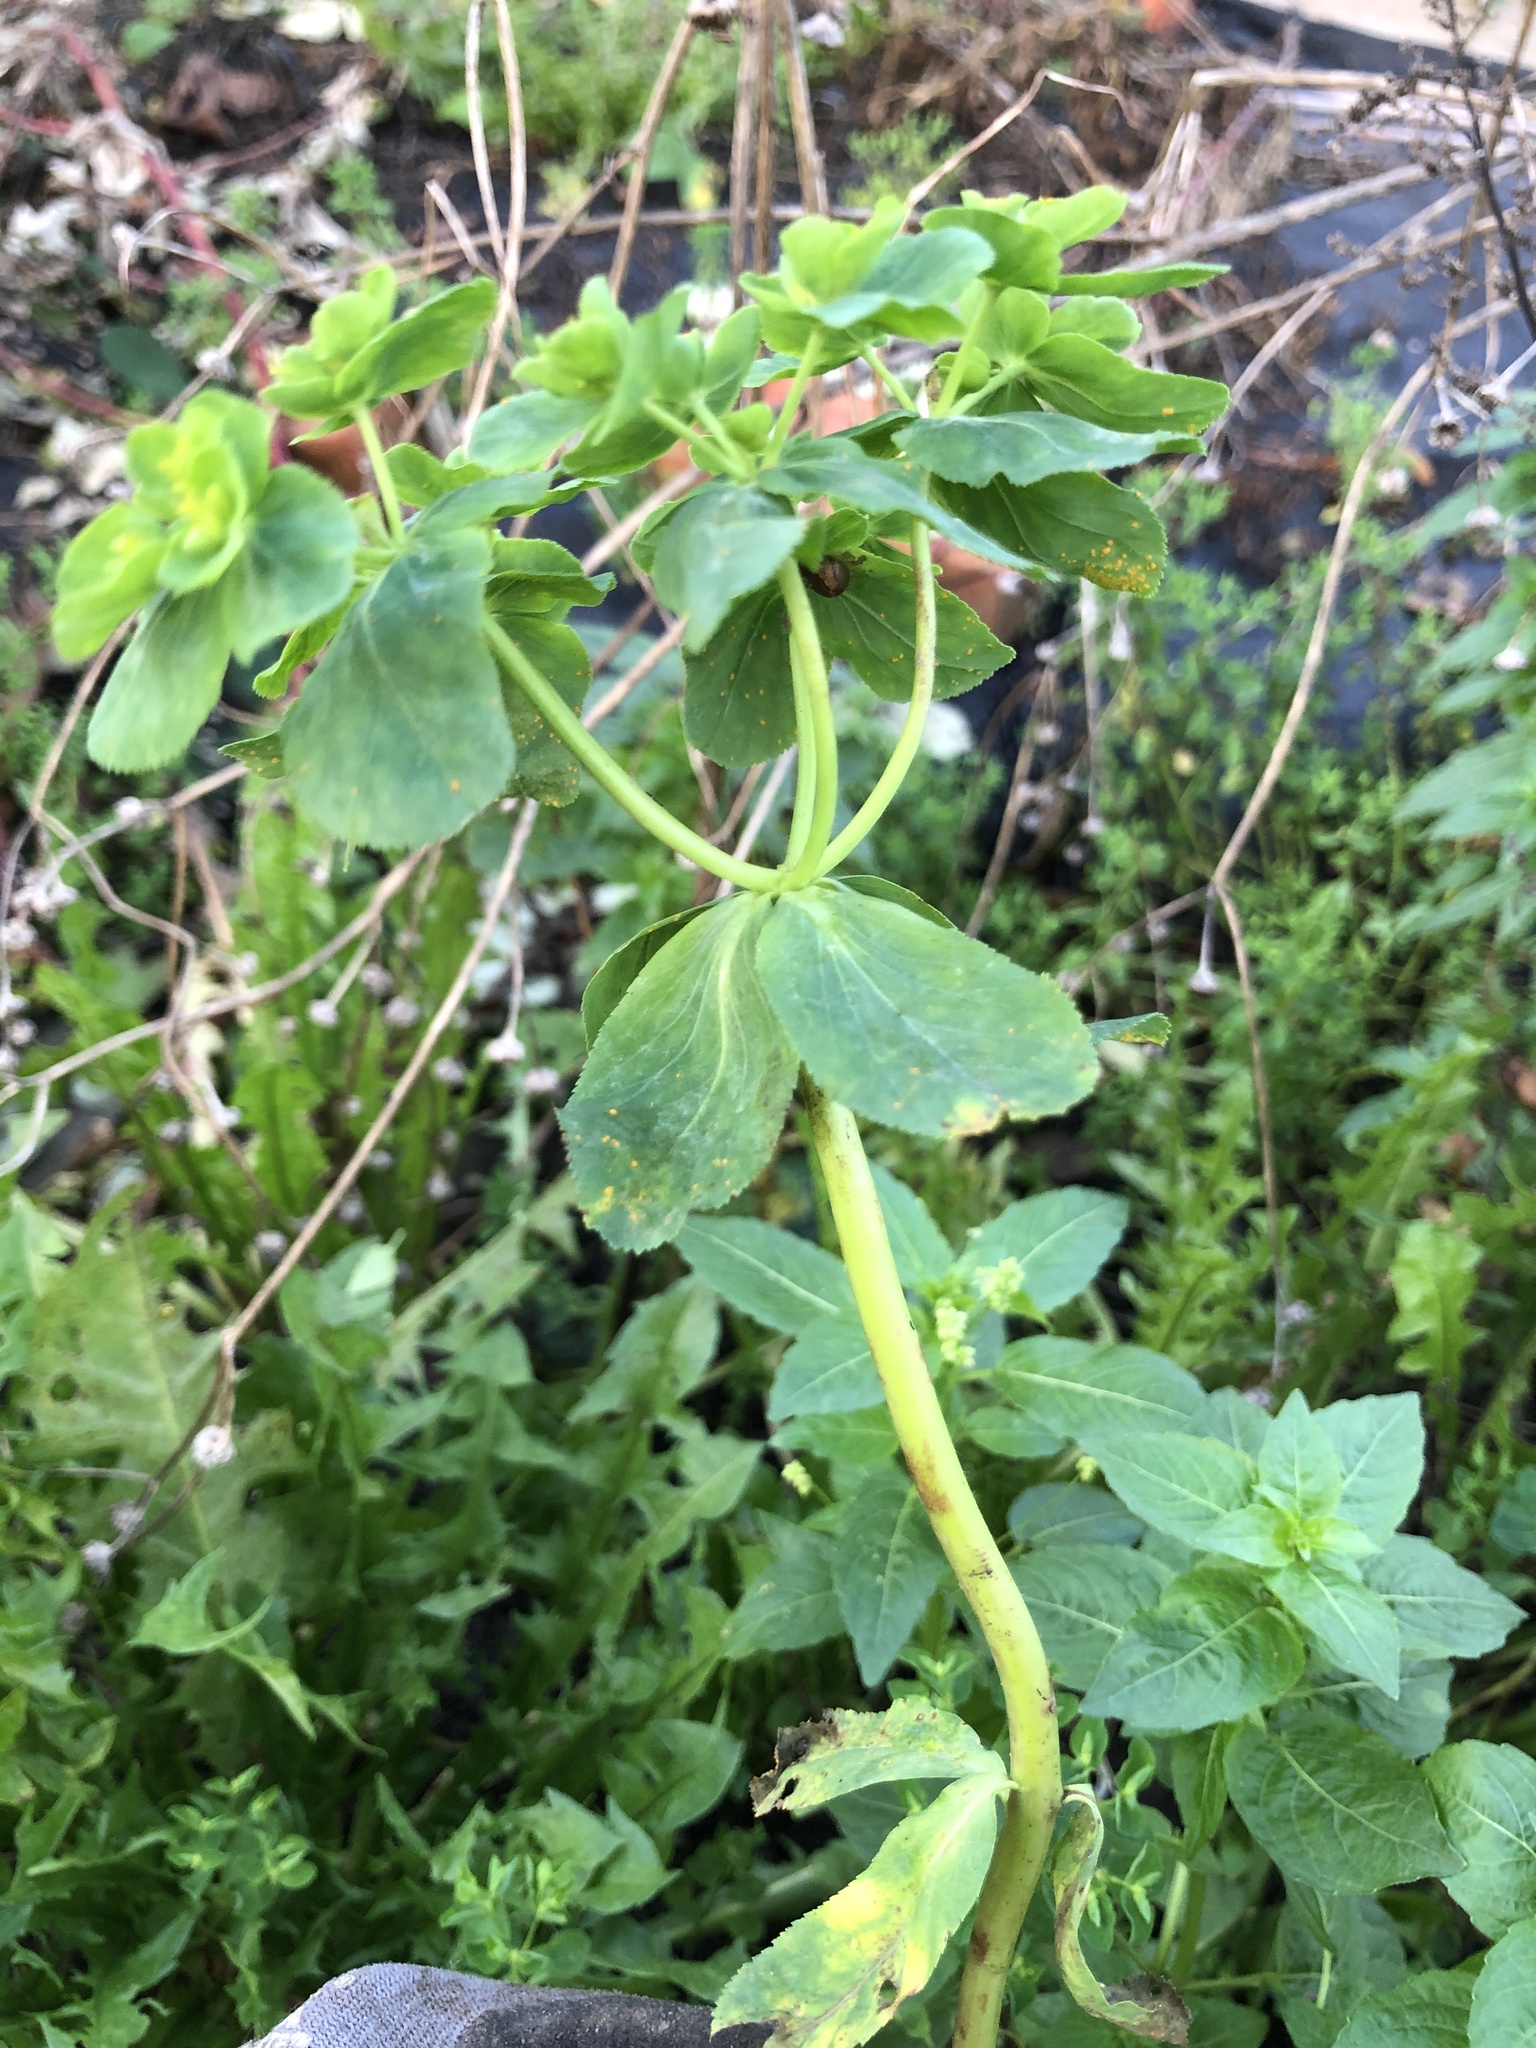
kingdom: Plantae
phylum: Tracheophyta
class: Magnoliopsida
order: Malpighiales
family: Euphorbiaceae
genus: Euphorbia
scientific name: Euphorbia helioscopia
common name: Sun spurge
